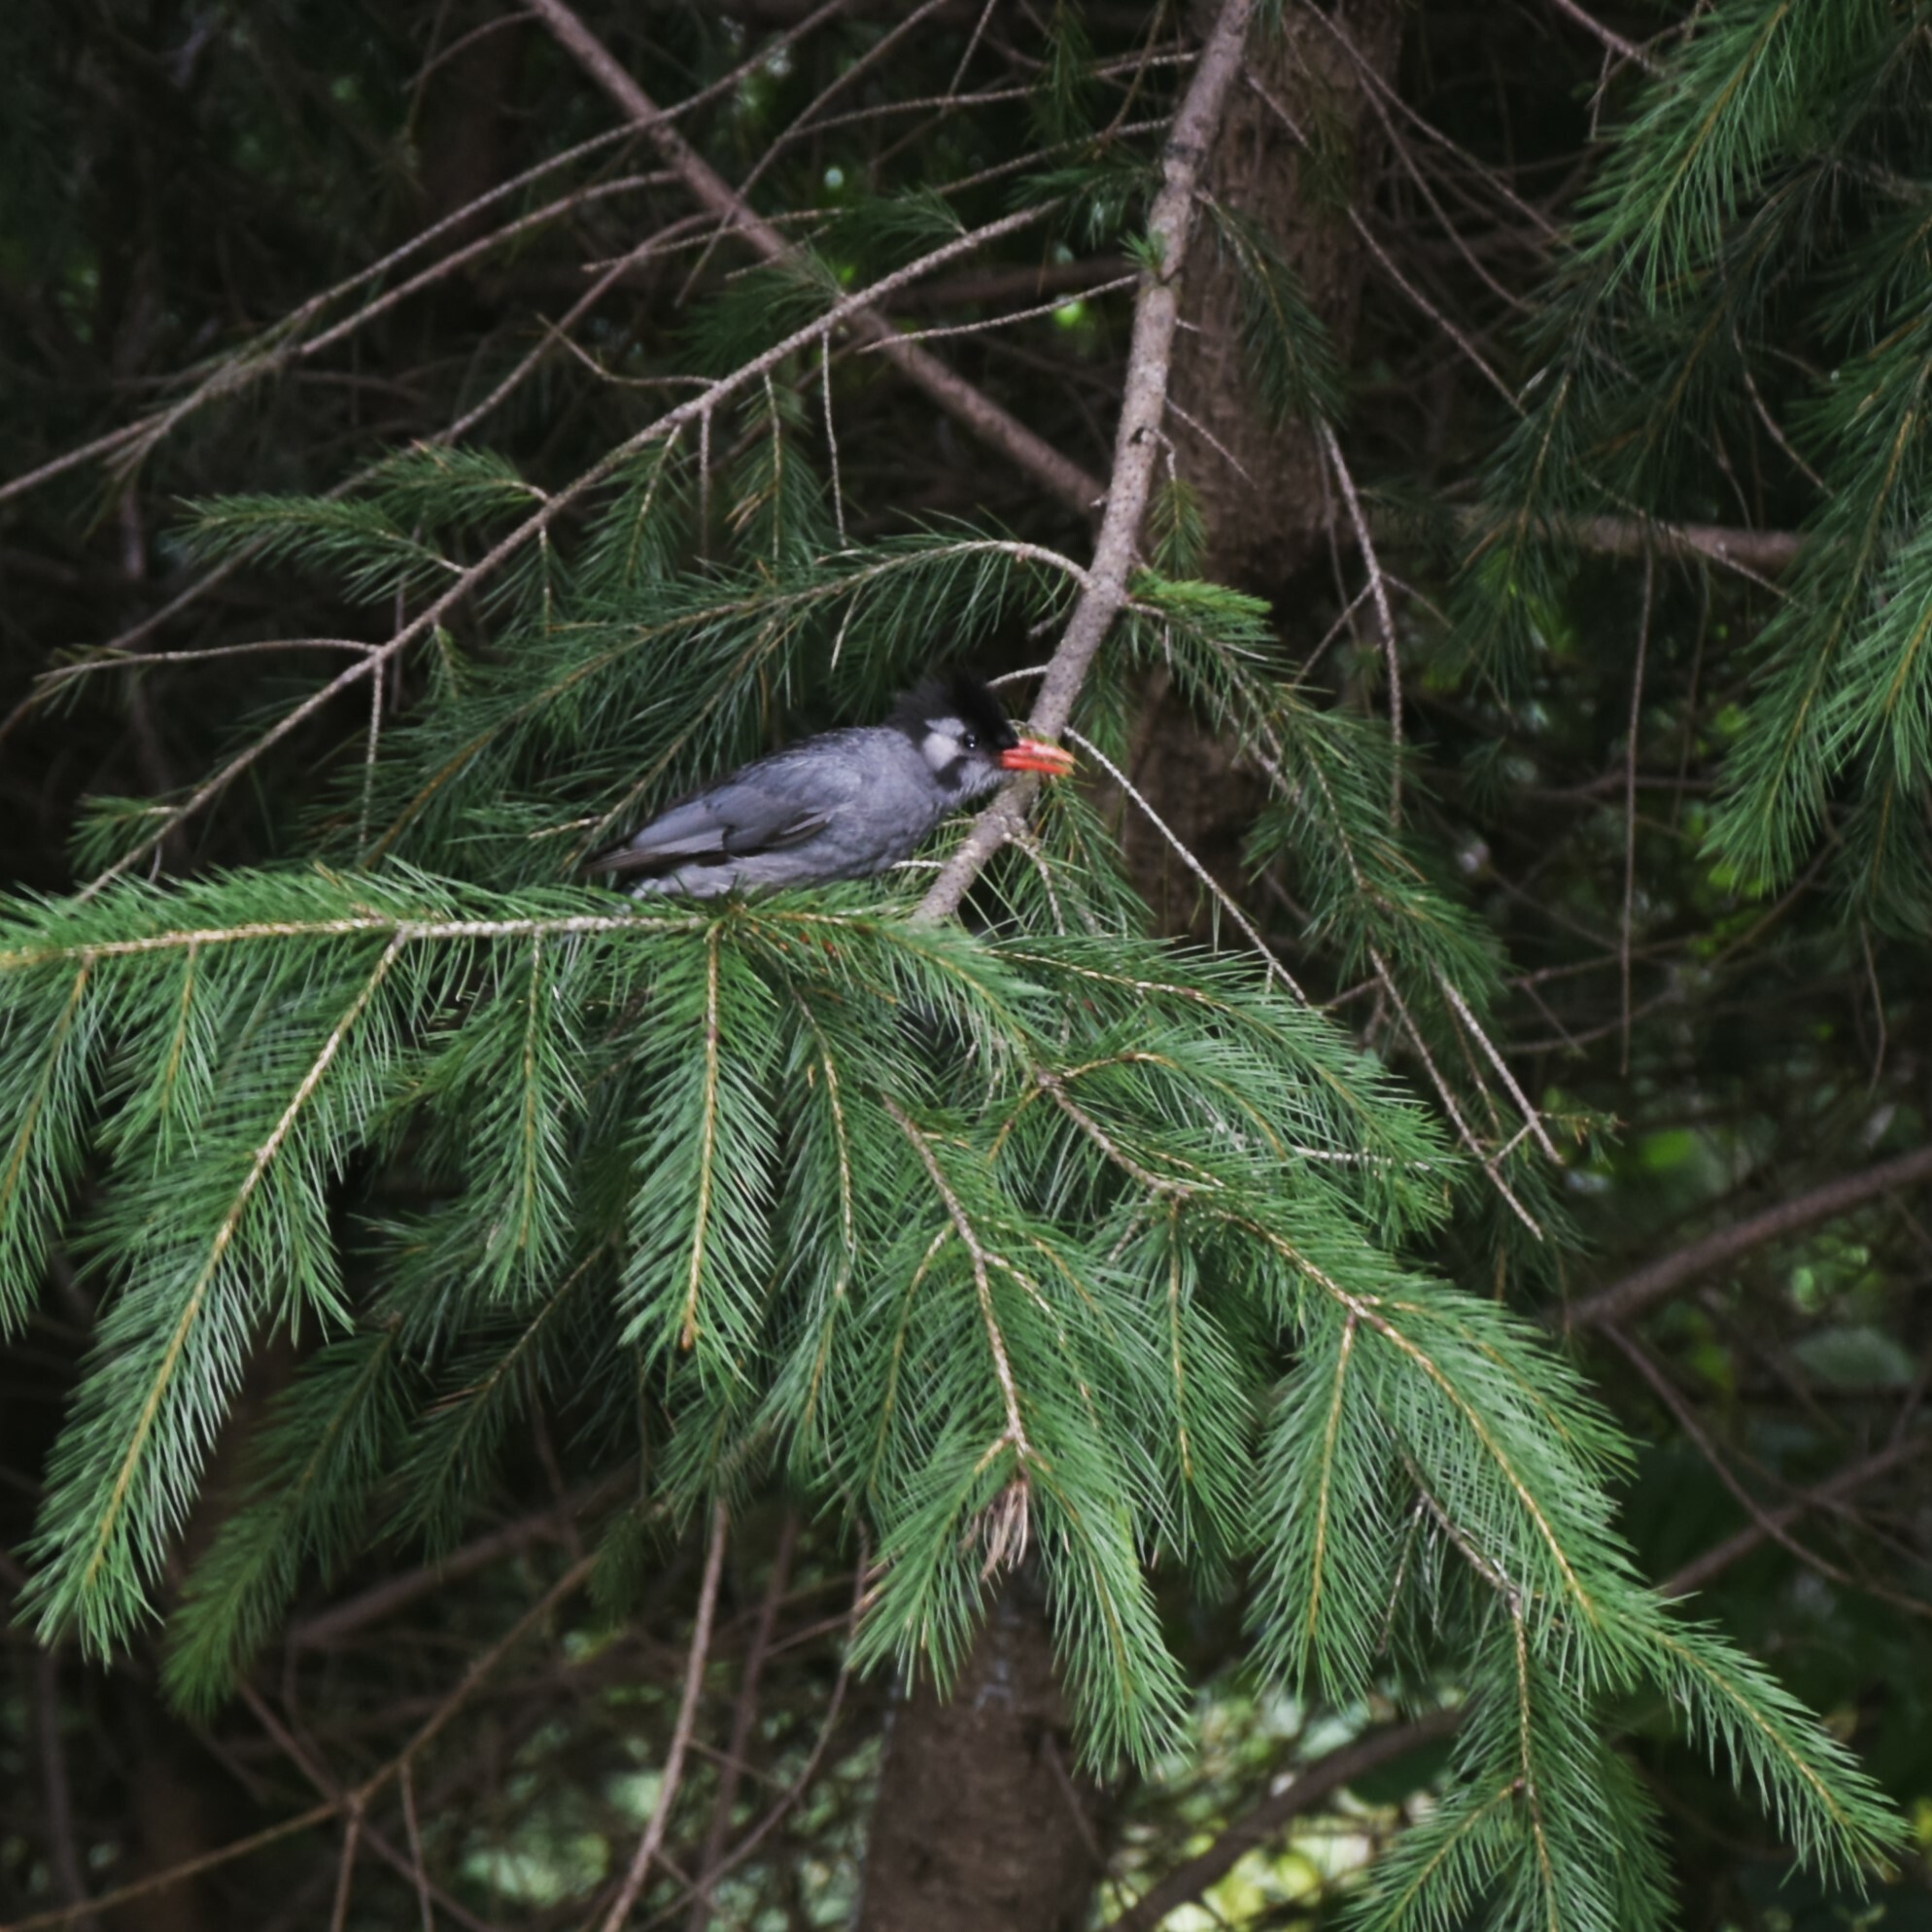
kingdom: Animalia
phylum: Chordata
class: Aves
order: Passeriformes
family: Pycnonotidae
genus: Hypsipetes
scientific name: Hypsipetes leucocephalus
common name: Black bulbul
